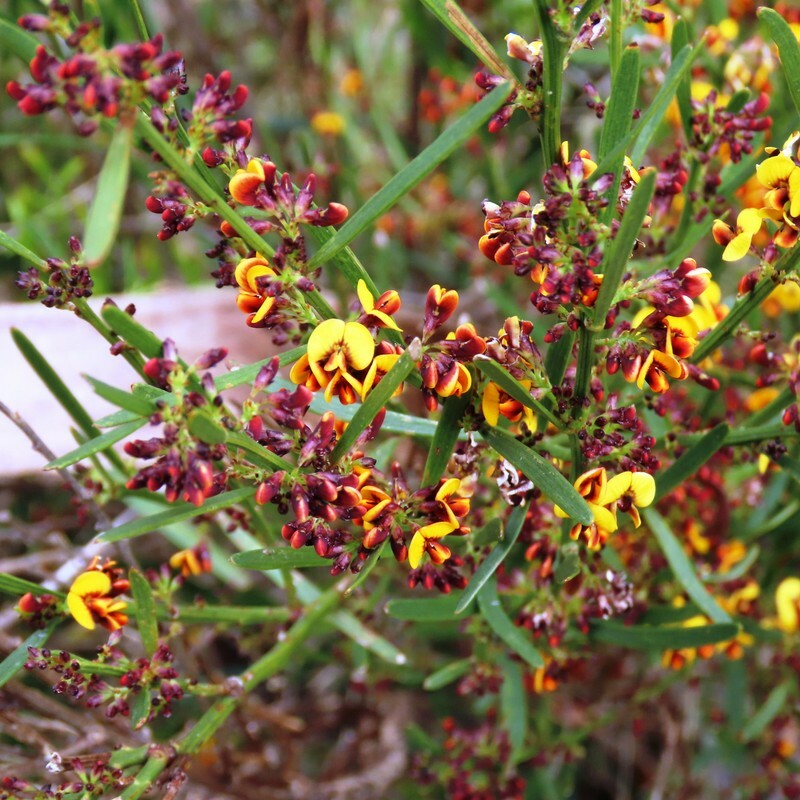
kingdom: Plantae
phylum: Tracheophyta
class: Magnoliopsida
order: Fabales
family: Fabaceae
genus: Daviesia
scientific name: Daviesia leptophylla
